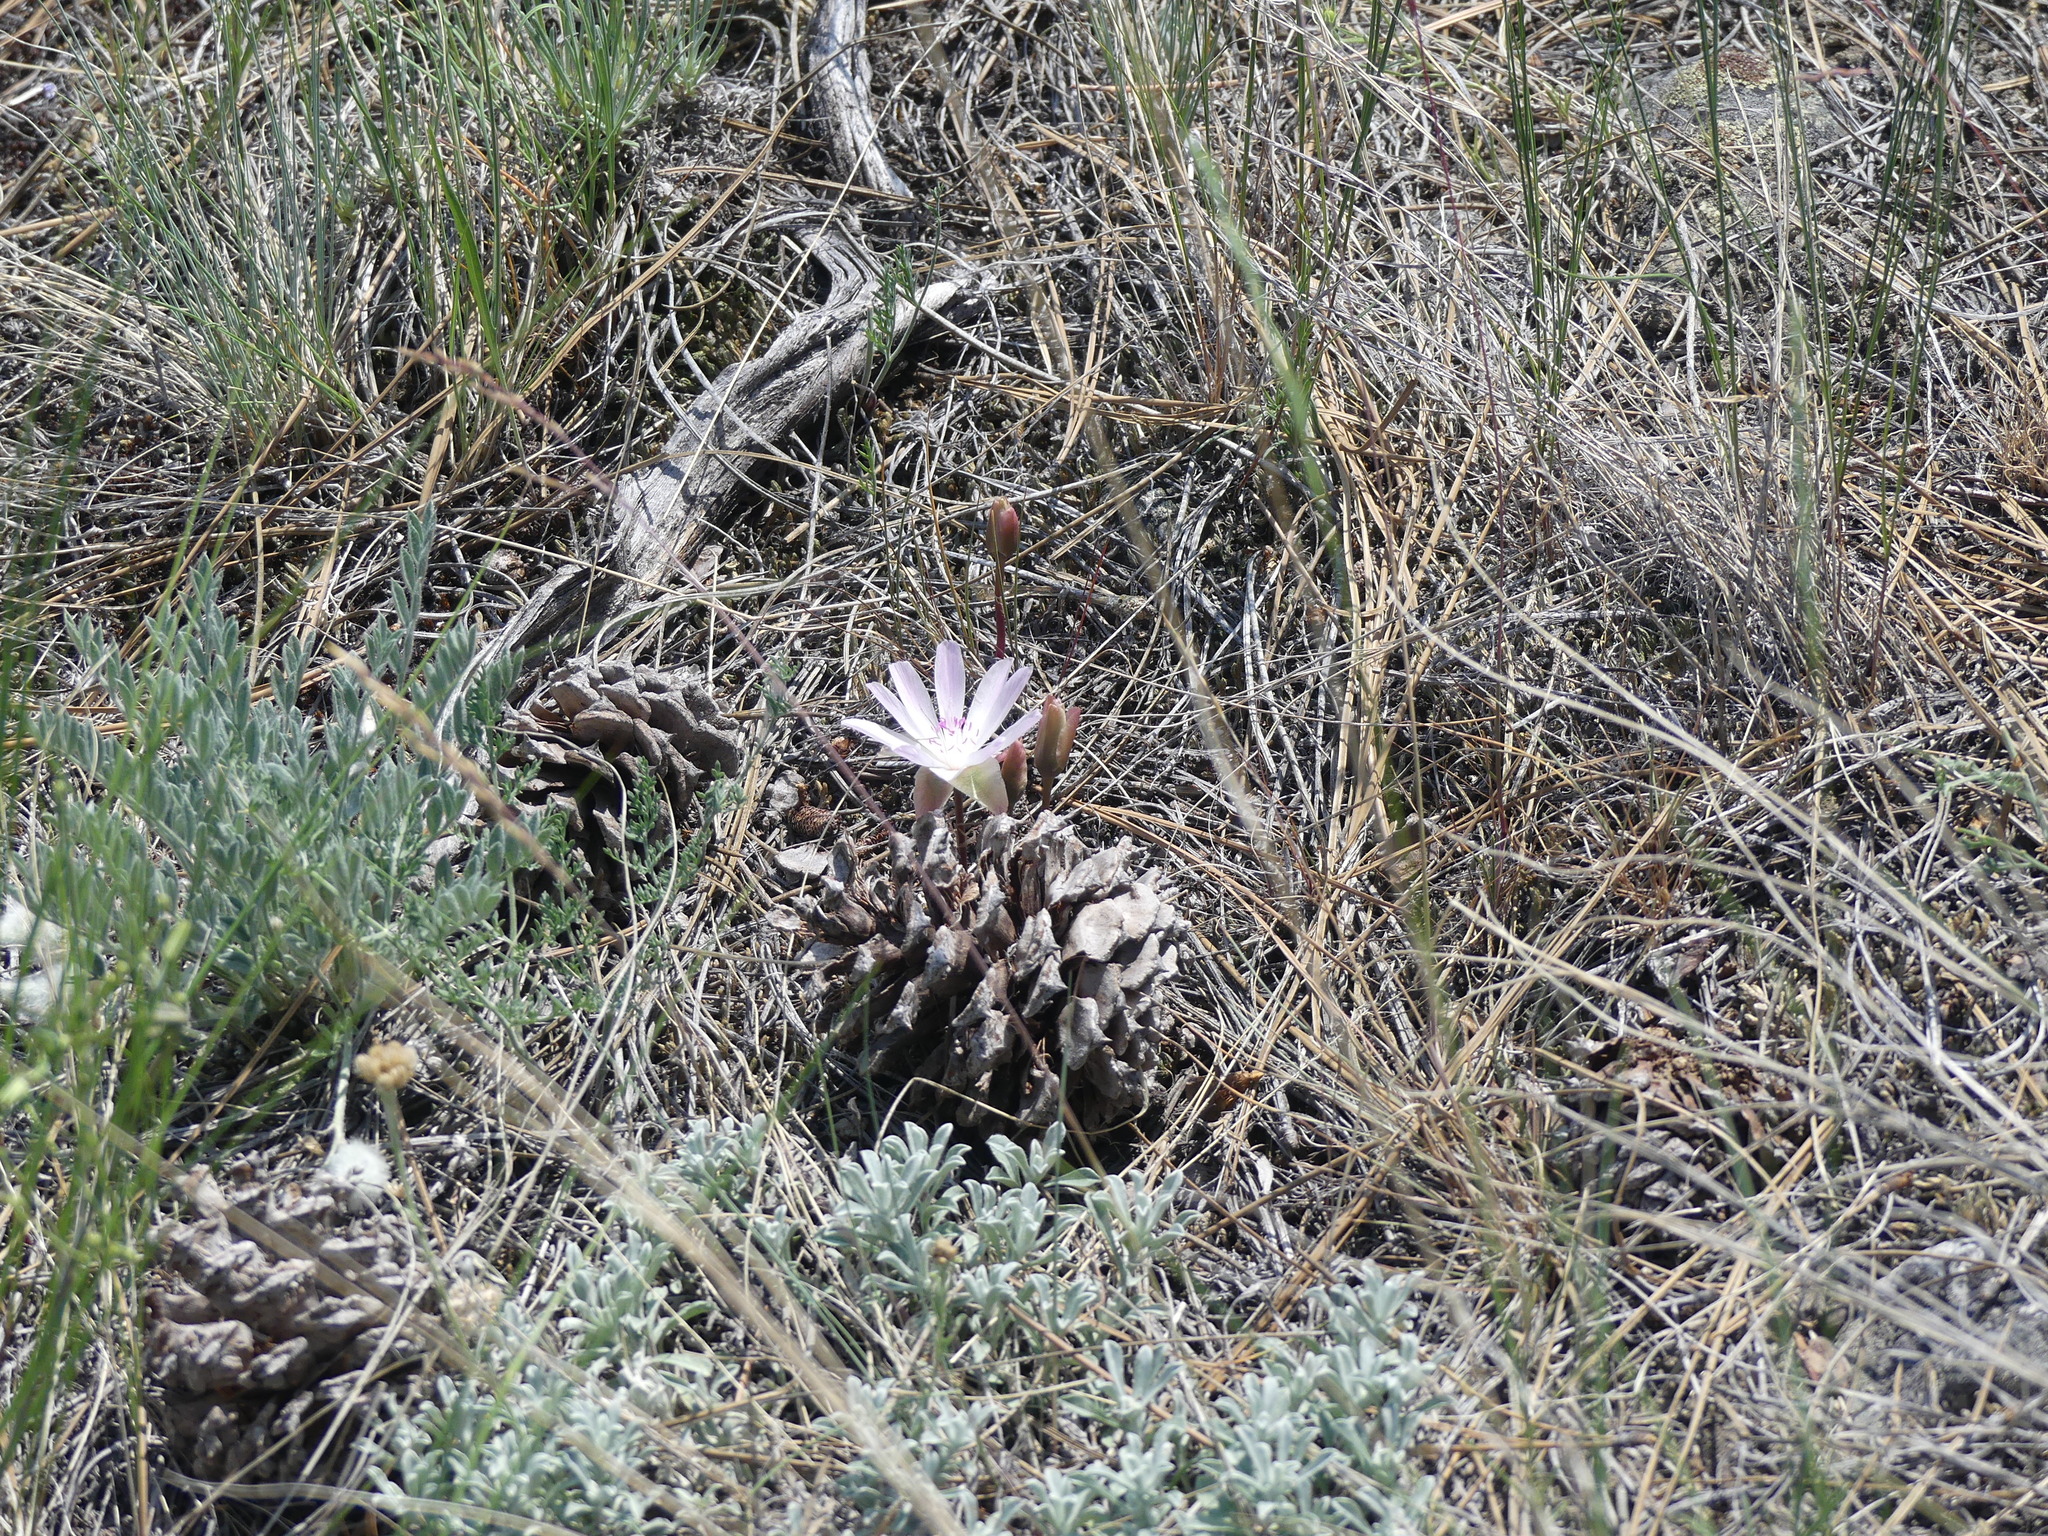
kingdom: Plantae
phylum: Tracheophyta
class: Magnoliopsida
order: Caryophyllales
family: Montiaceae
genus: Lewisia
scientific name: Lewisia rediviva
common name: Bitter-root
